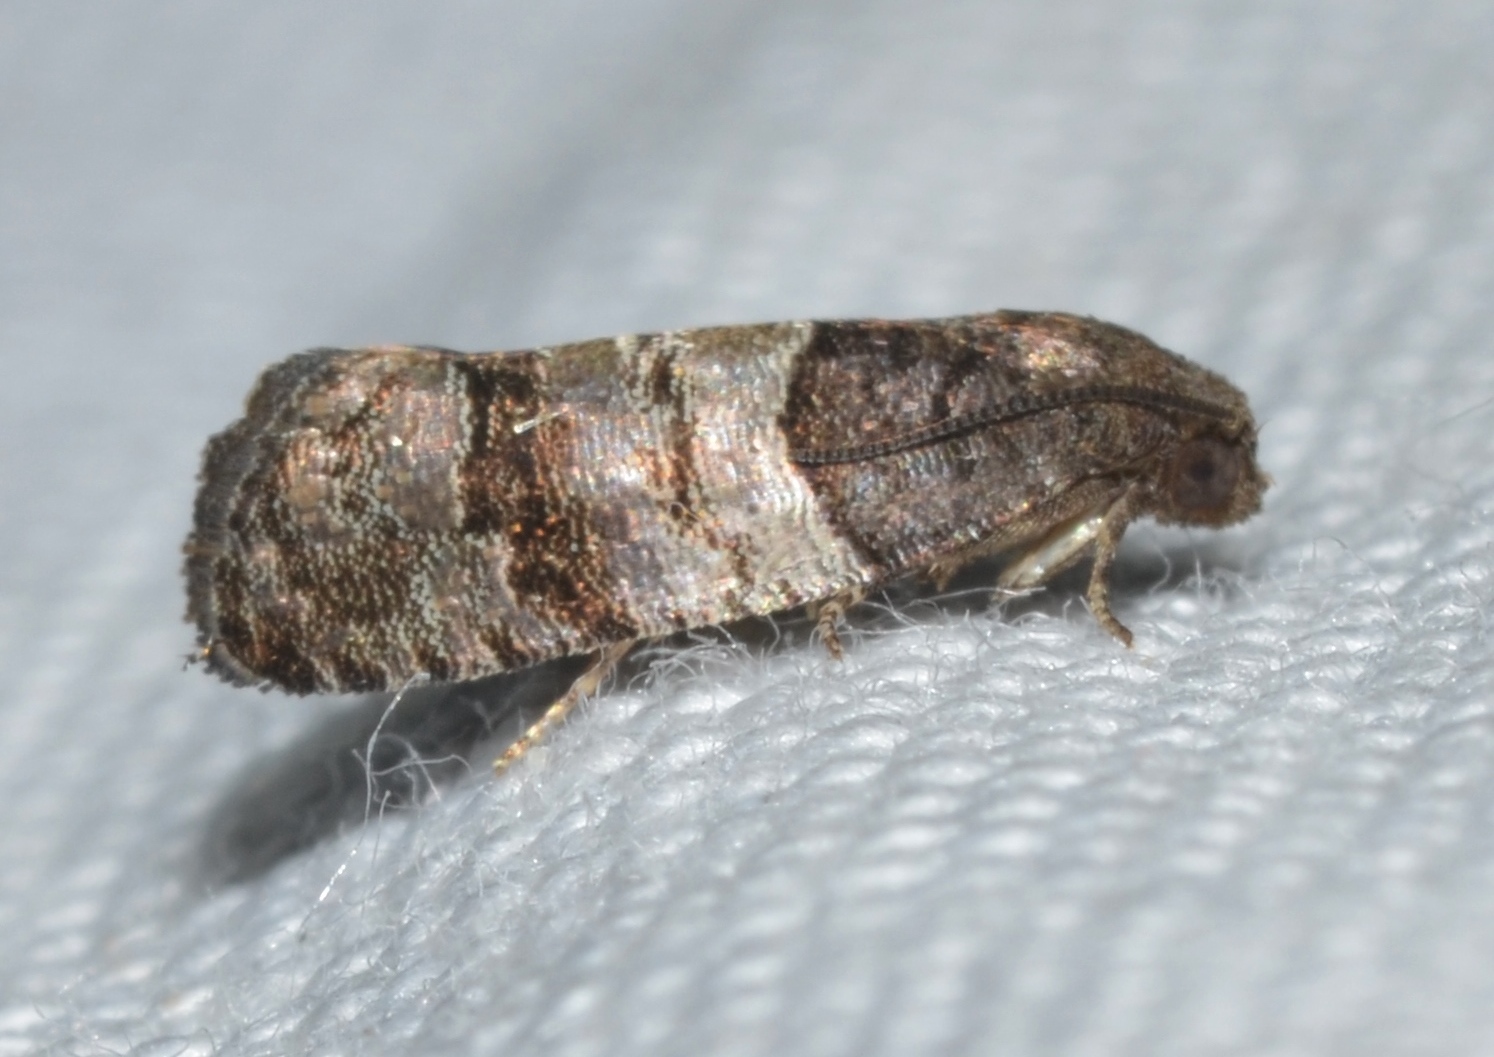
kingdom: Animalia
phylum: Arthropoda
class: Insecta
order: Lepidoptera
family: Tortricidae
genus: Larisa
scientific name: Larisa subsolana
